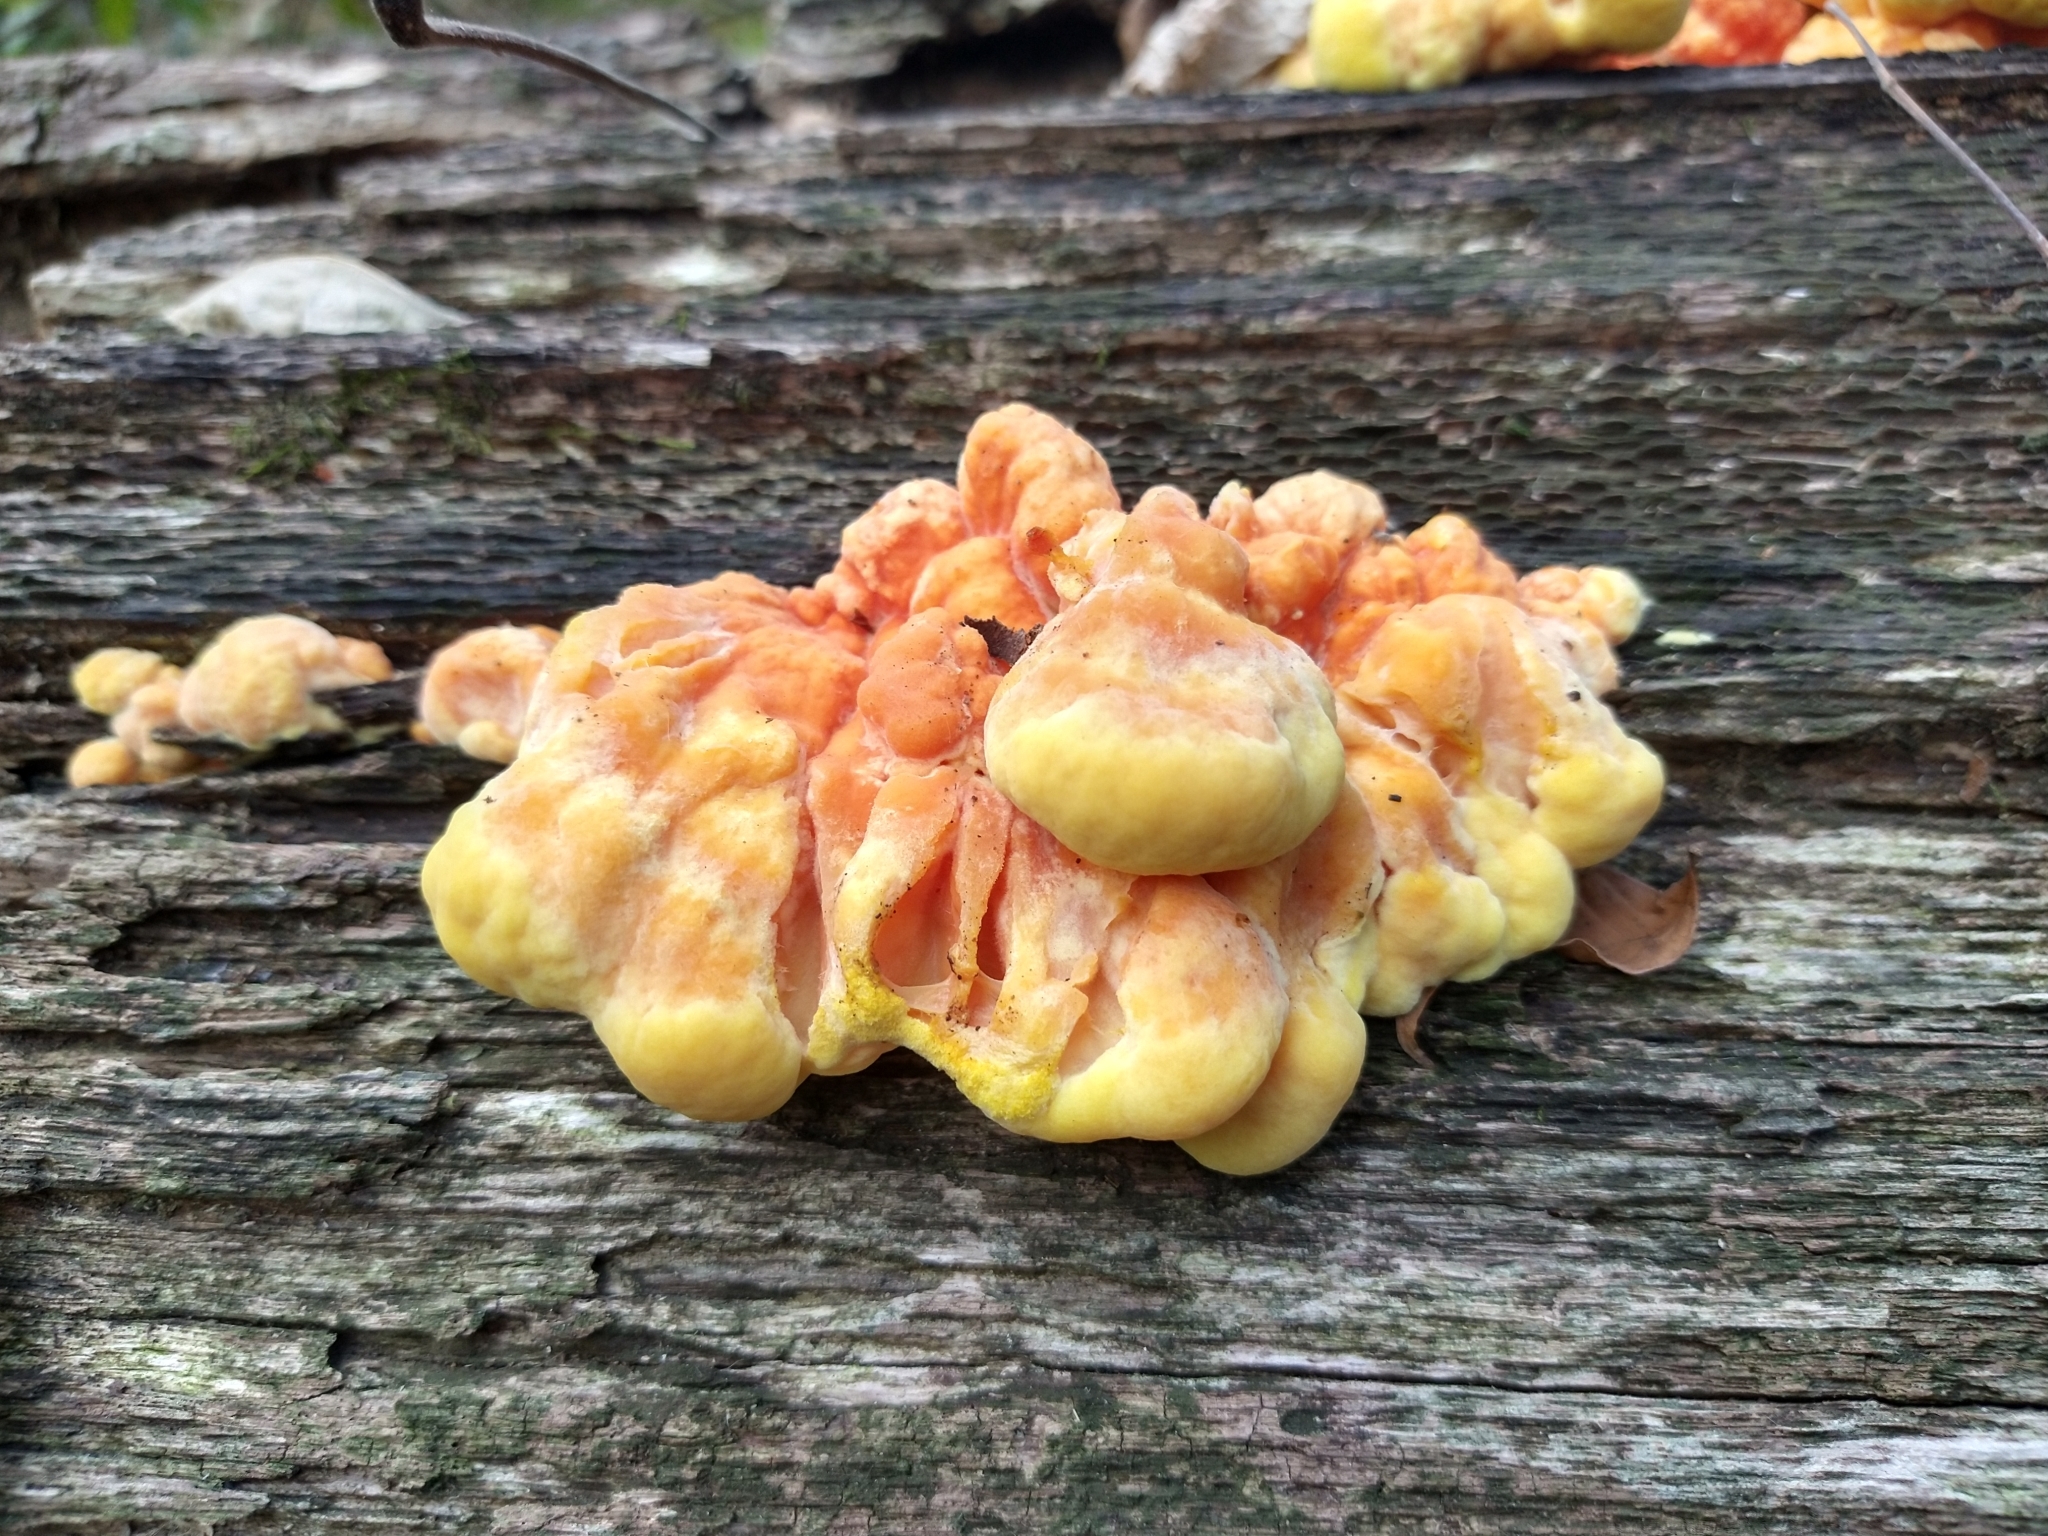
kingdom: Fungi
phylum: Basidiomycota
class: Agaricomycetes
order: Polyporales
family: Laetiporaceae
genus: Laetiporus
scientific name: Laetiporus sulphureus
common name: Chicken of the woods
